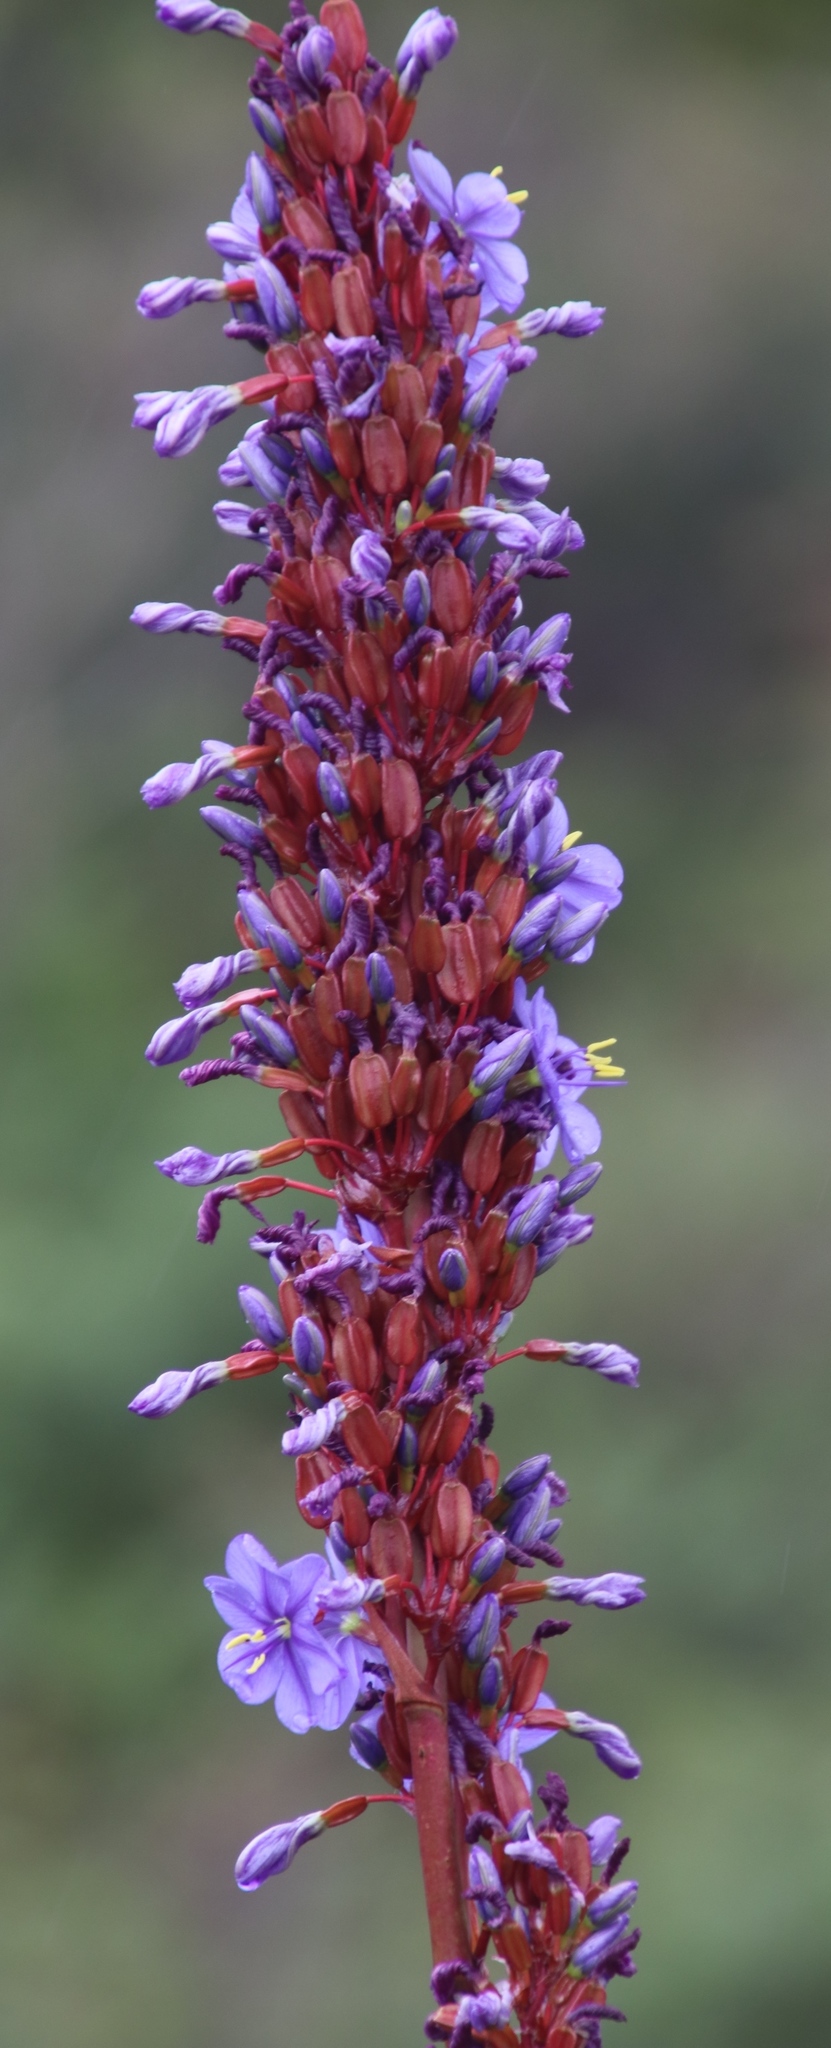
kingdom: Plantae
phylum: Tracheophyta
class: Liliopsida
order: Asparagales
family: Iridaceae
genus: Aristea
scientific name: Aristea capitata
